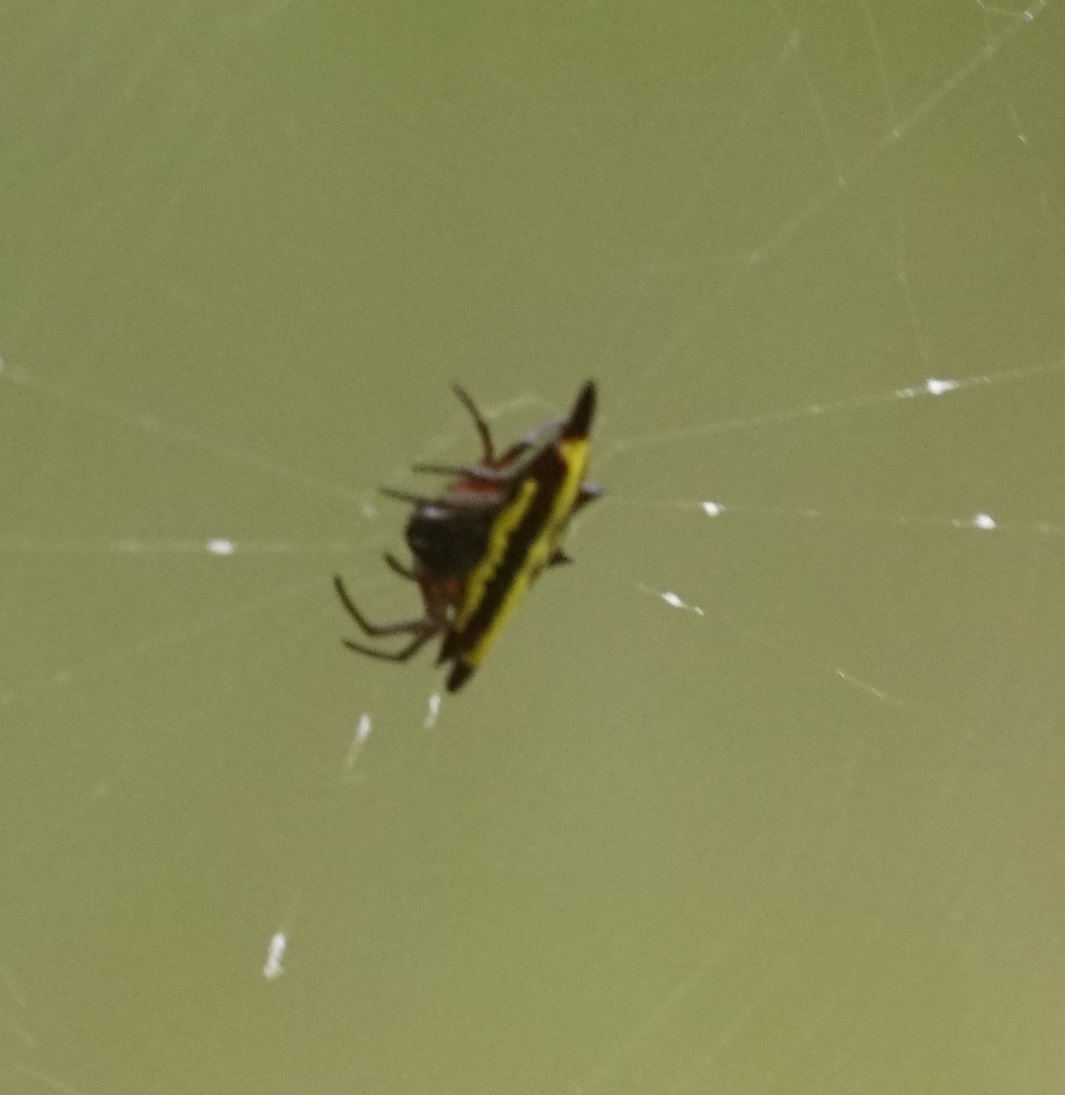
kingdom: Animalia
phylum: Arthropoda
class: Arachnida
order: Araneae
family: Araneidae
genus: Gasteracantha
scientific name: Gasteracantha fornicata
